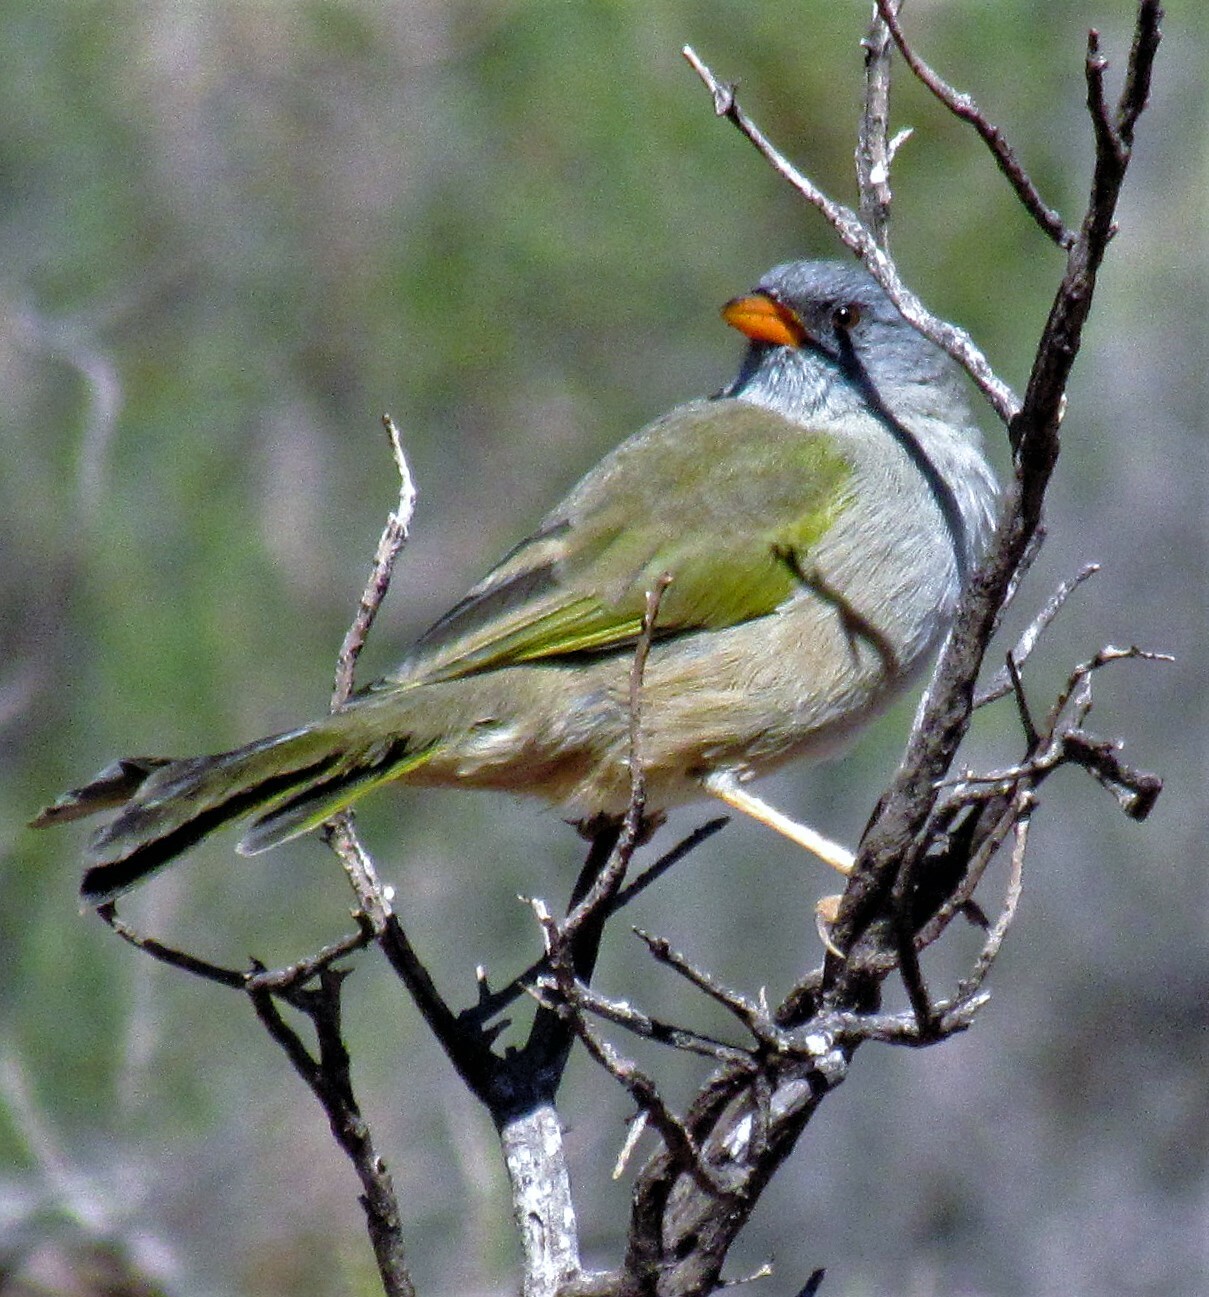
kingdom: Animalia
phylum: Chordata
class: Aves
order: Passeriformes
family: Thraupidae
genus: Embernagra
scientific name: Embernagra platensis
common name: Pampa finch
